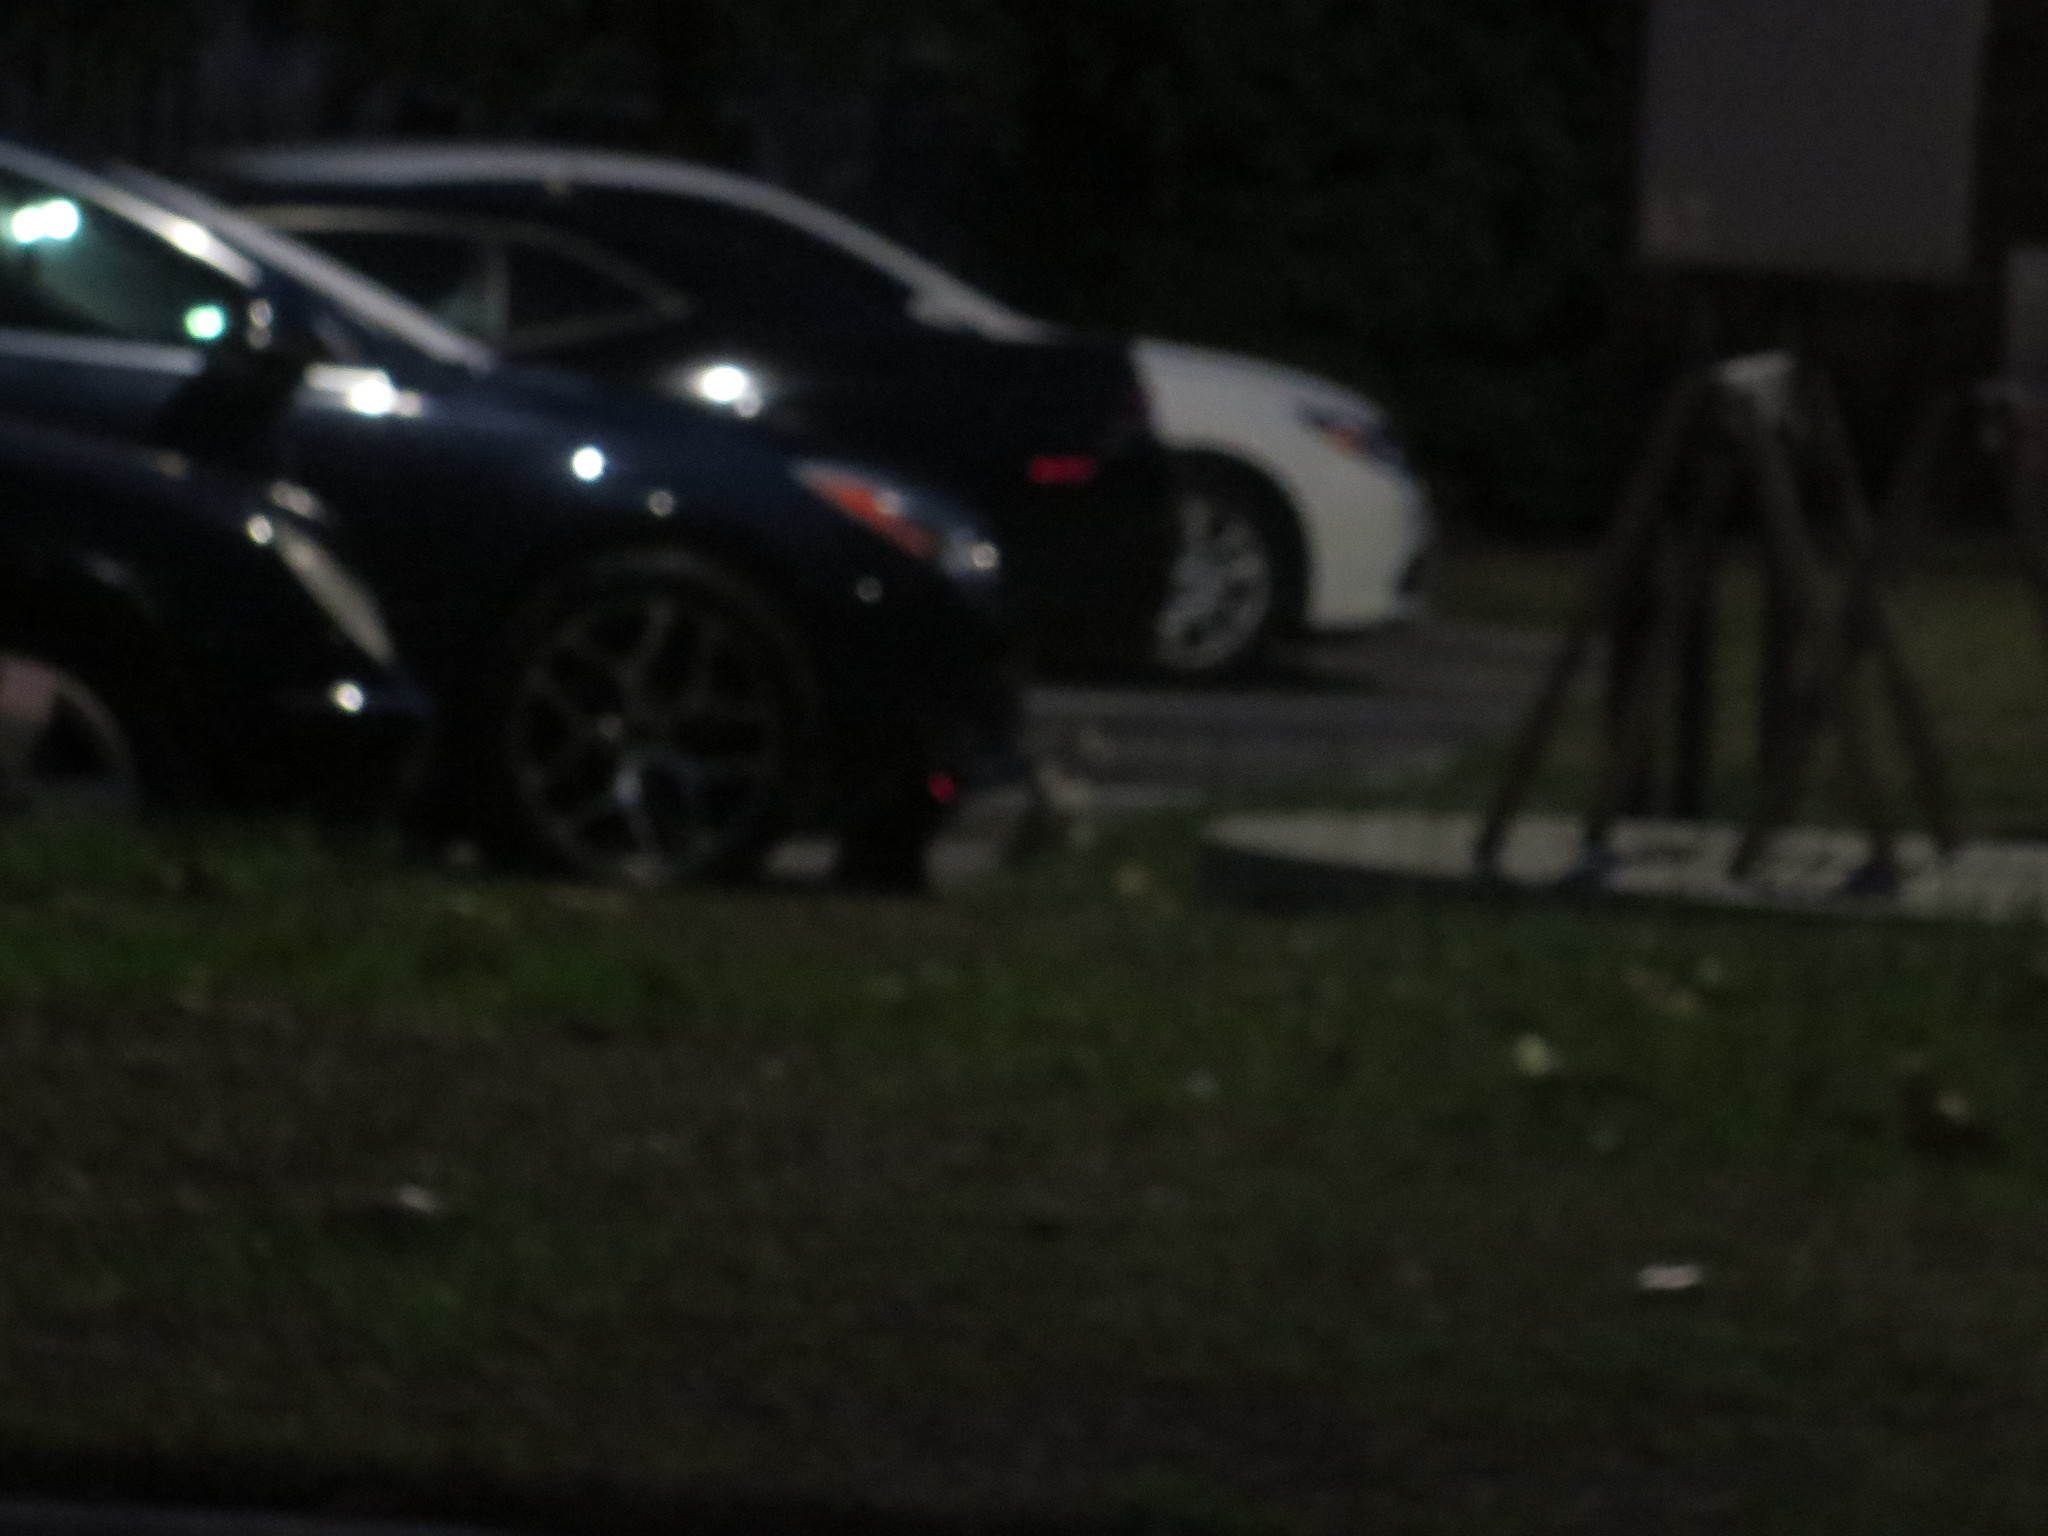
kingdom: Animalia
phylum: Chordata
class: Mammalia
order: Carnivora
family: Felidae
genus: Felis
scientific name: Felis catus
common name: Domestic cat
